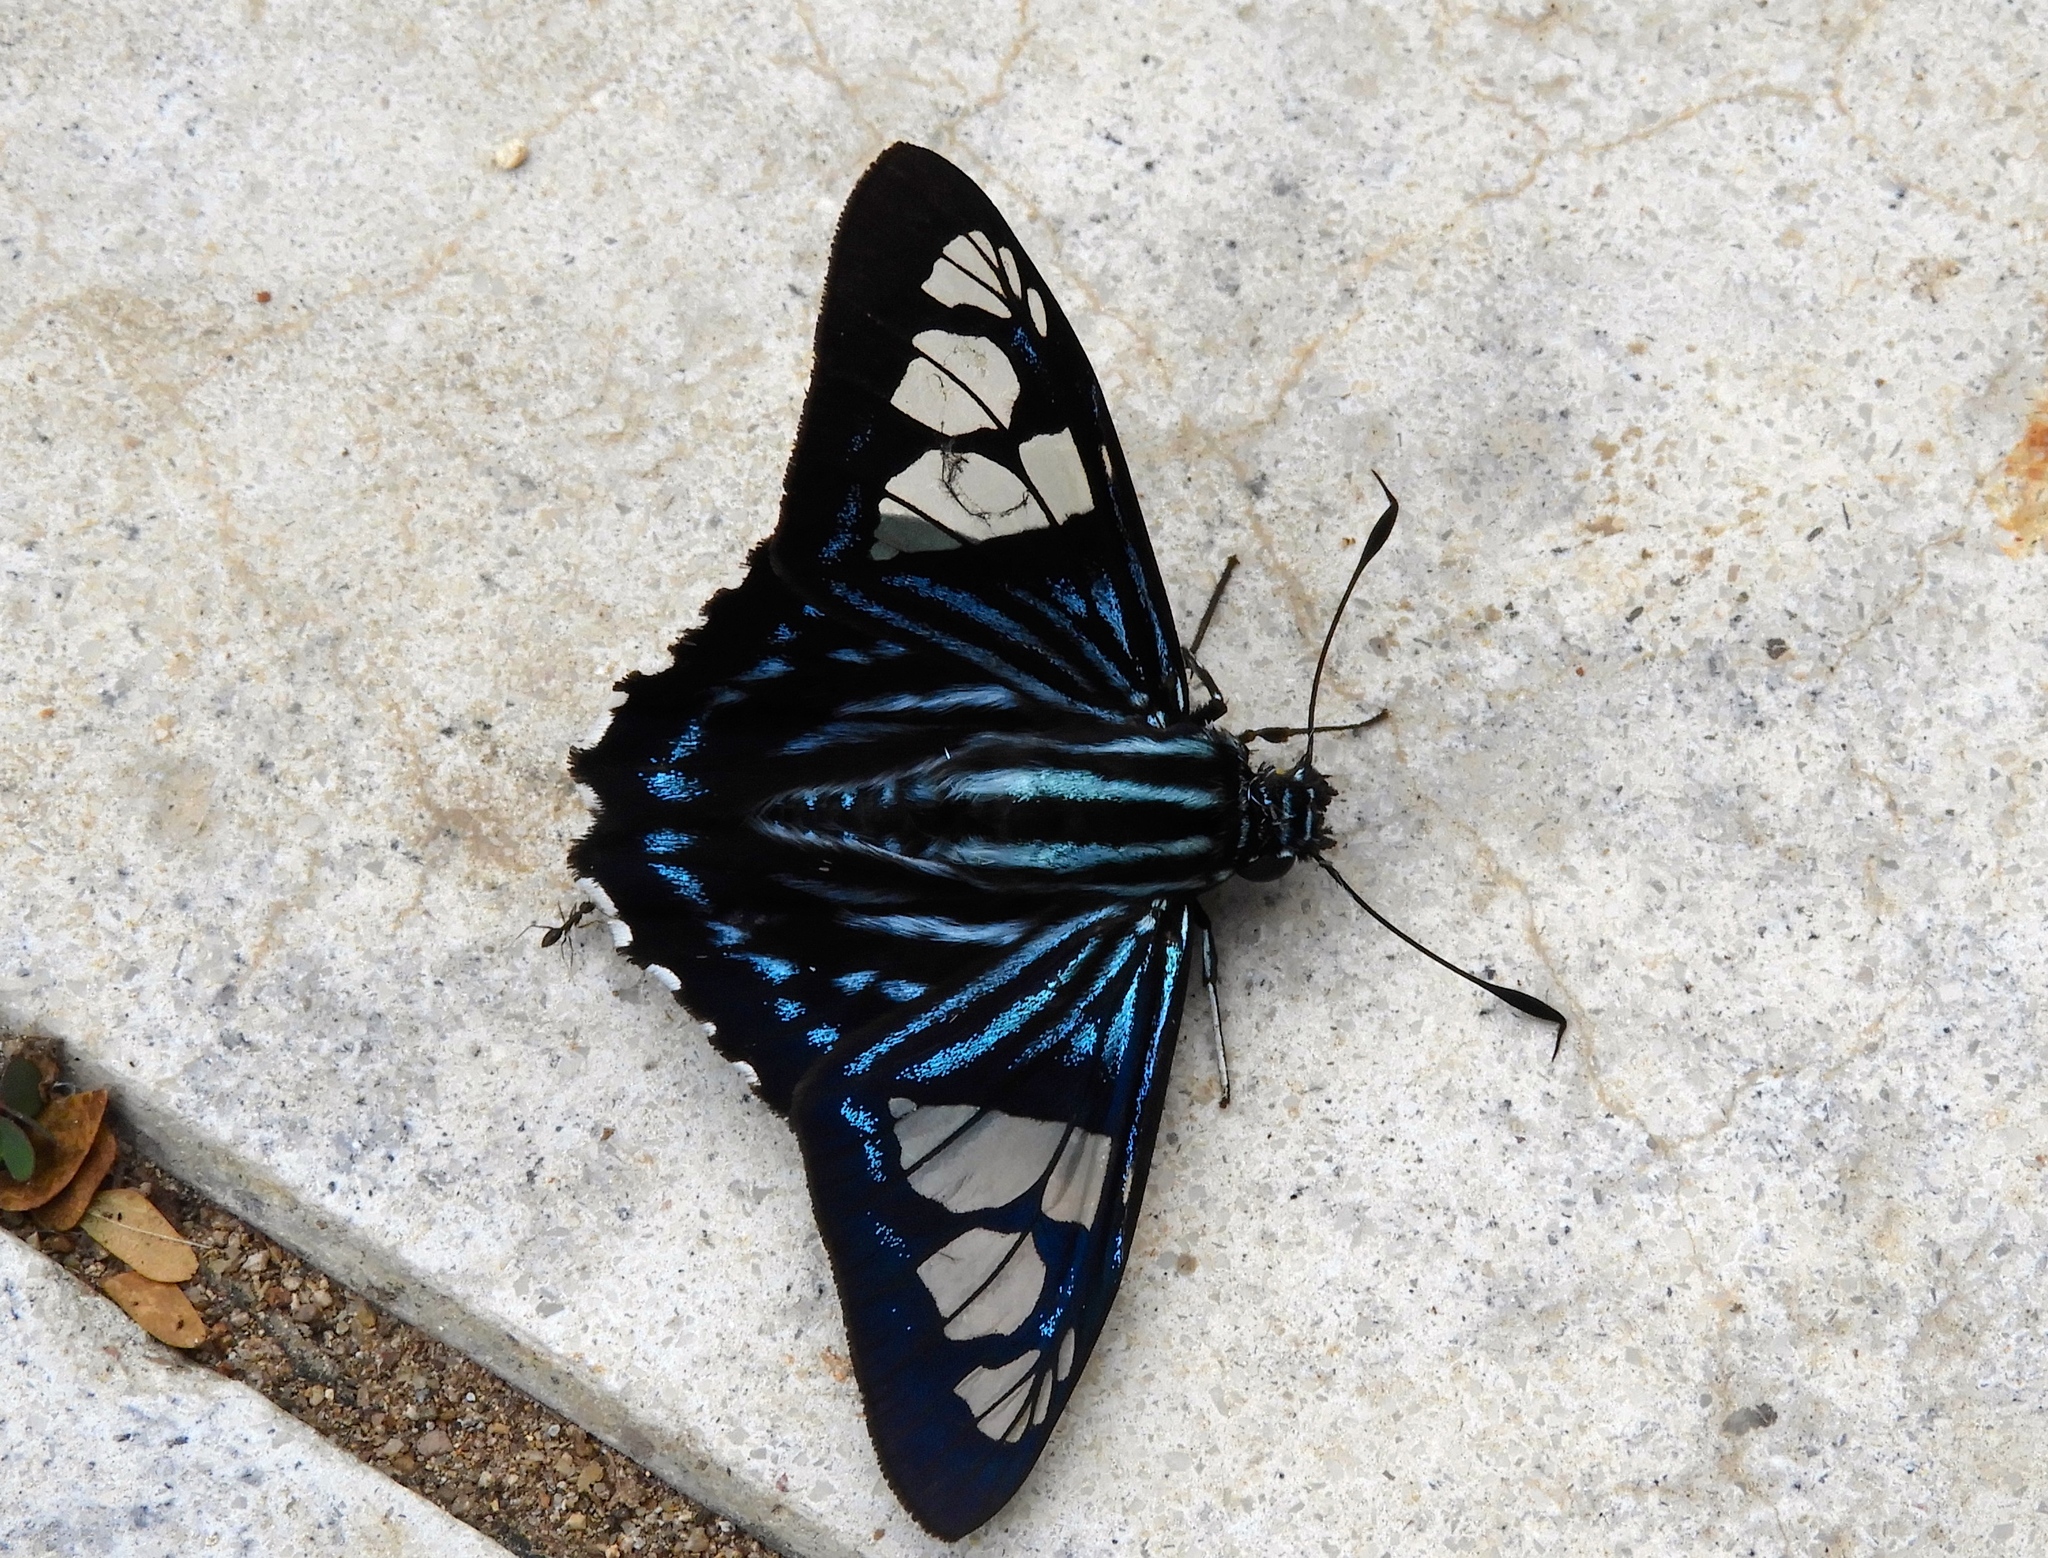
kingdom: Animalia
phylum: Arthropoda
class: Insecta
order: Lepidoptera
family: Hesperiidae
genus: Phocides
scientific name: Phocides pigmalion
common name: Mangrove skipper
